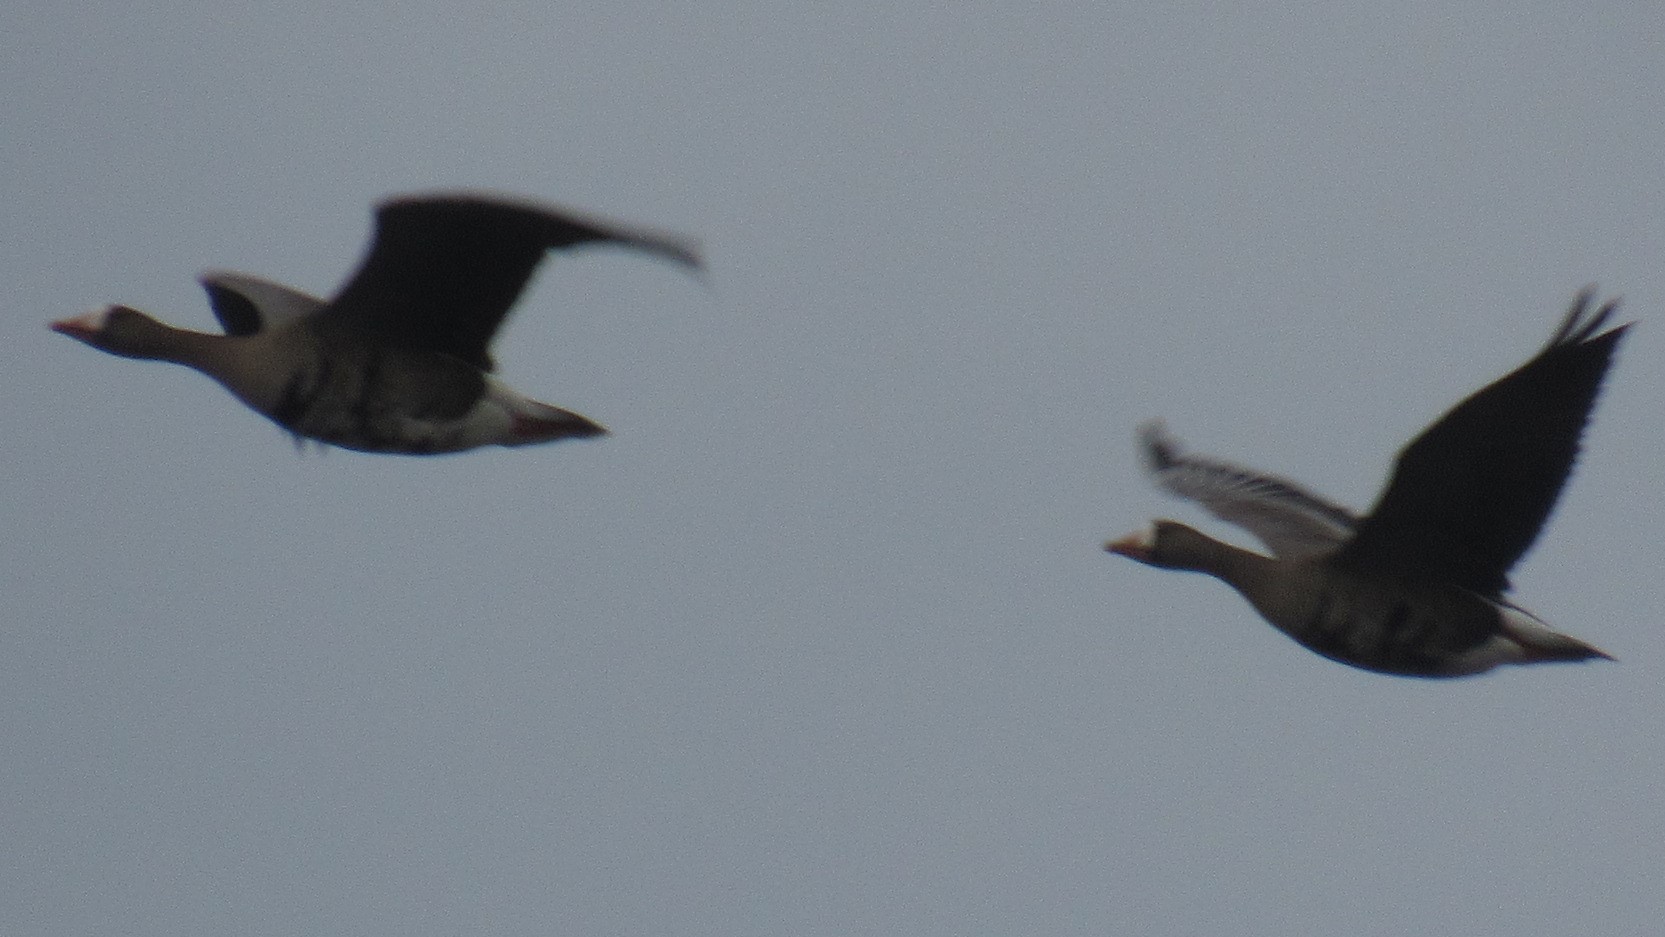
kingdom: Animalia
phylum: Chordata
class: Aves
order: Anseriformes
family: Anatidae
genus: Anser
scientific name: Anser albifrons
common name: Greater white-fronted goose
